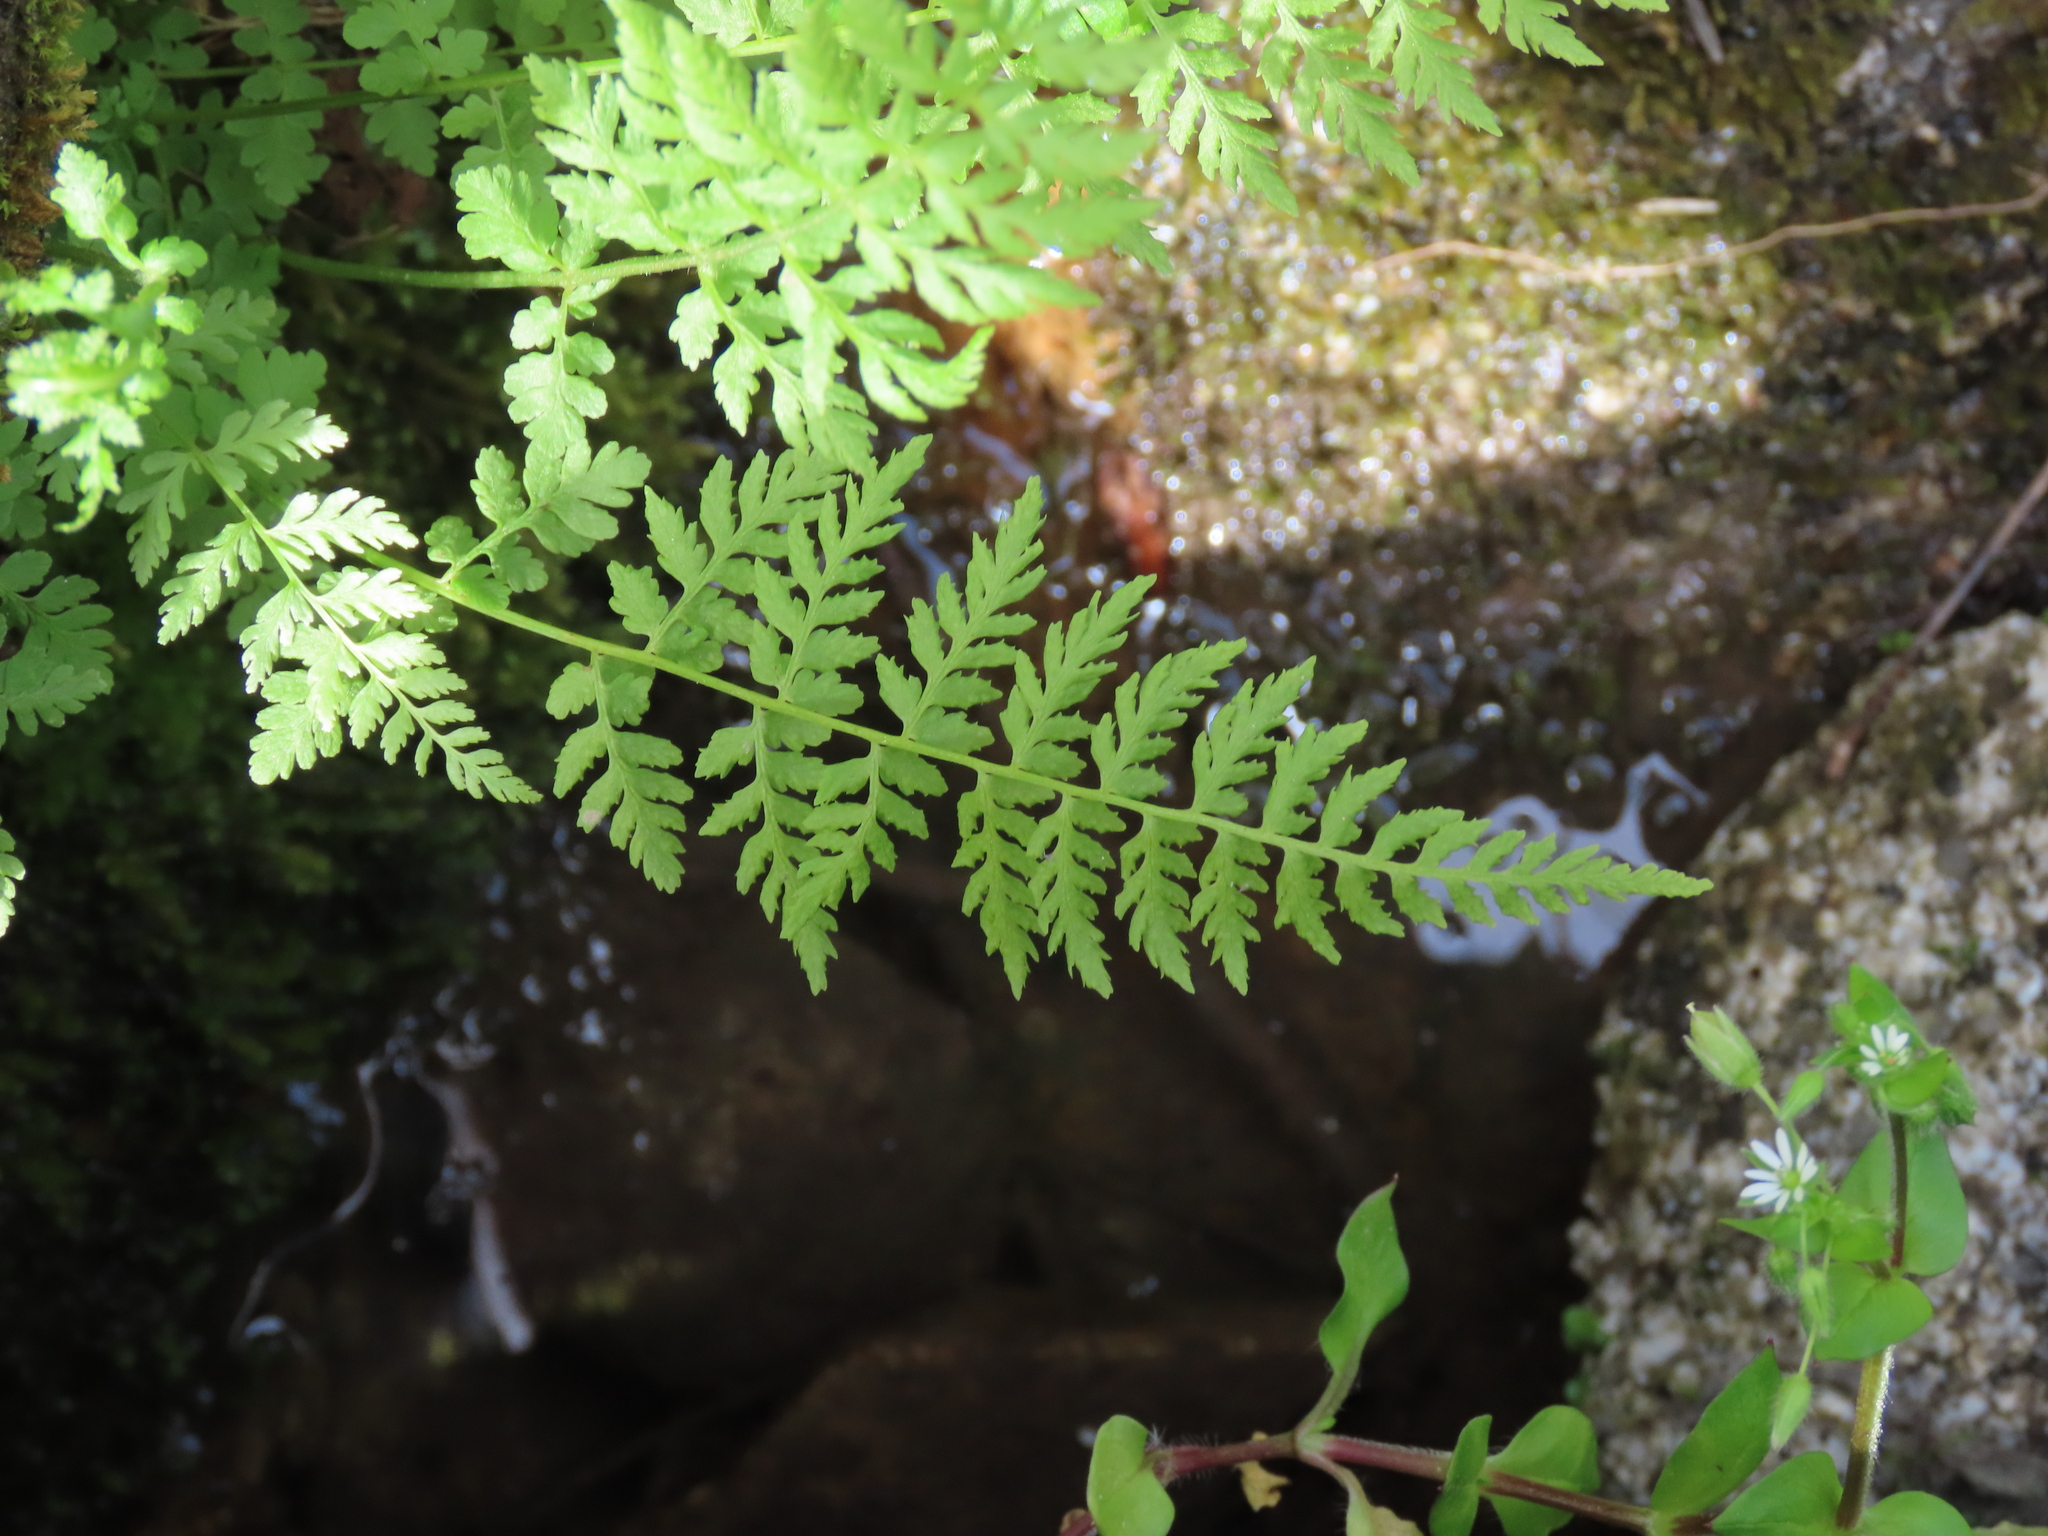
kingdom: Plantae
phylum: Tracheophyta
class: Polypodiopsida
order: Polypodiales
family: Cystopteridaceae
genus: Cystopteris
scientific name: Cystopteris fragilis
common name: Brittle bladder fern
